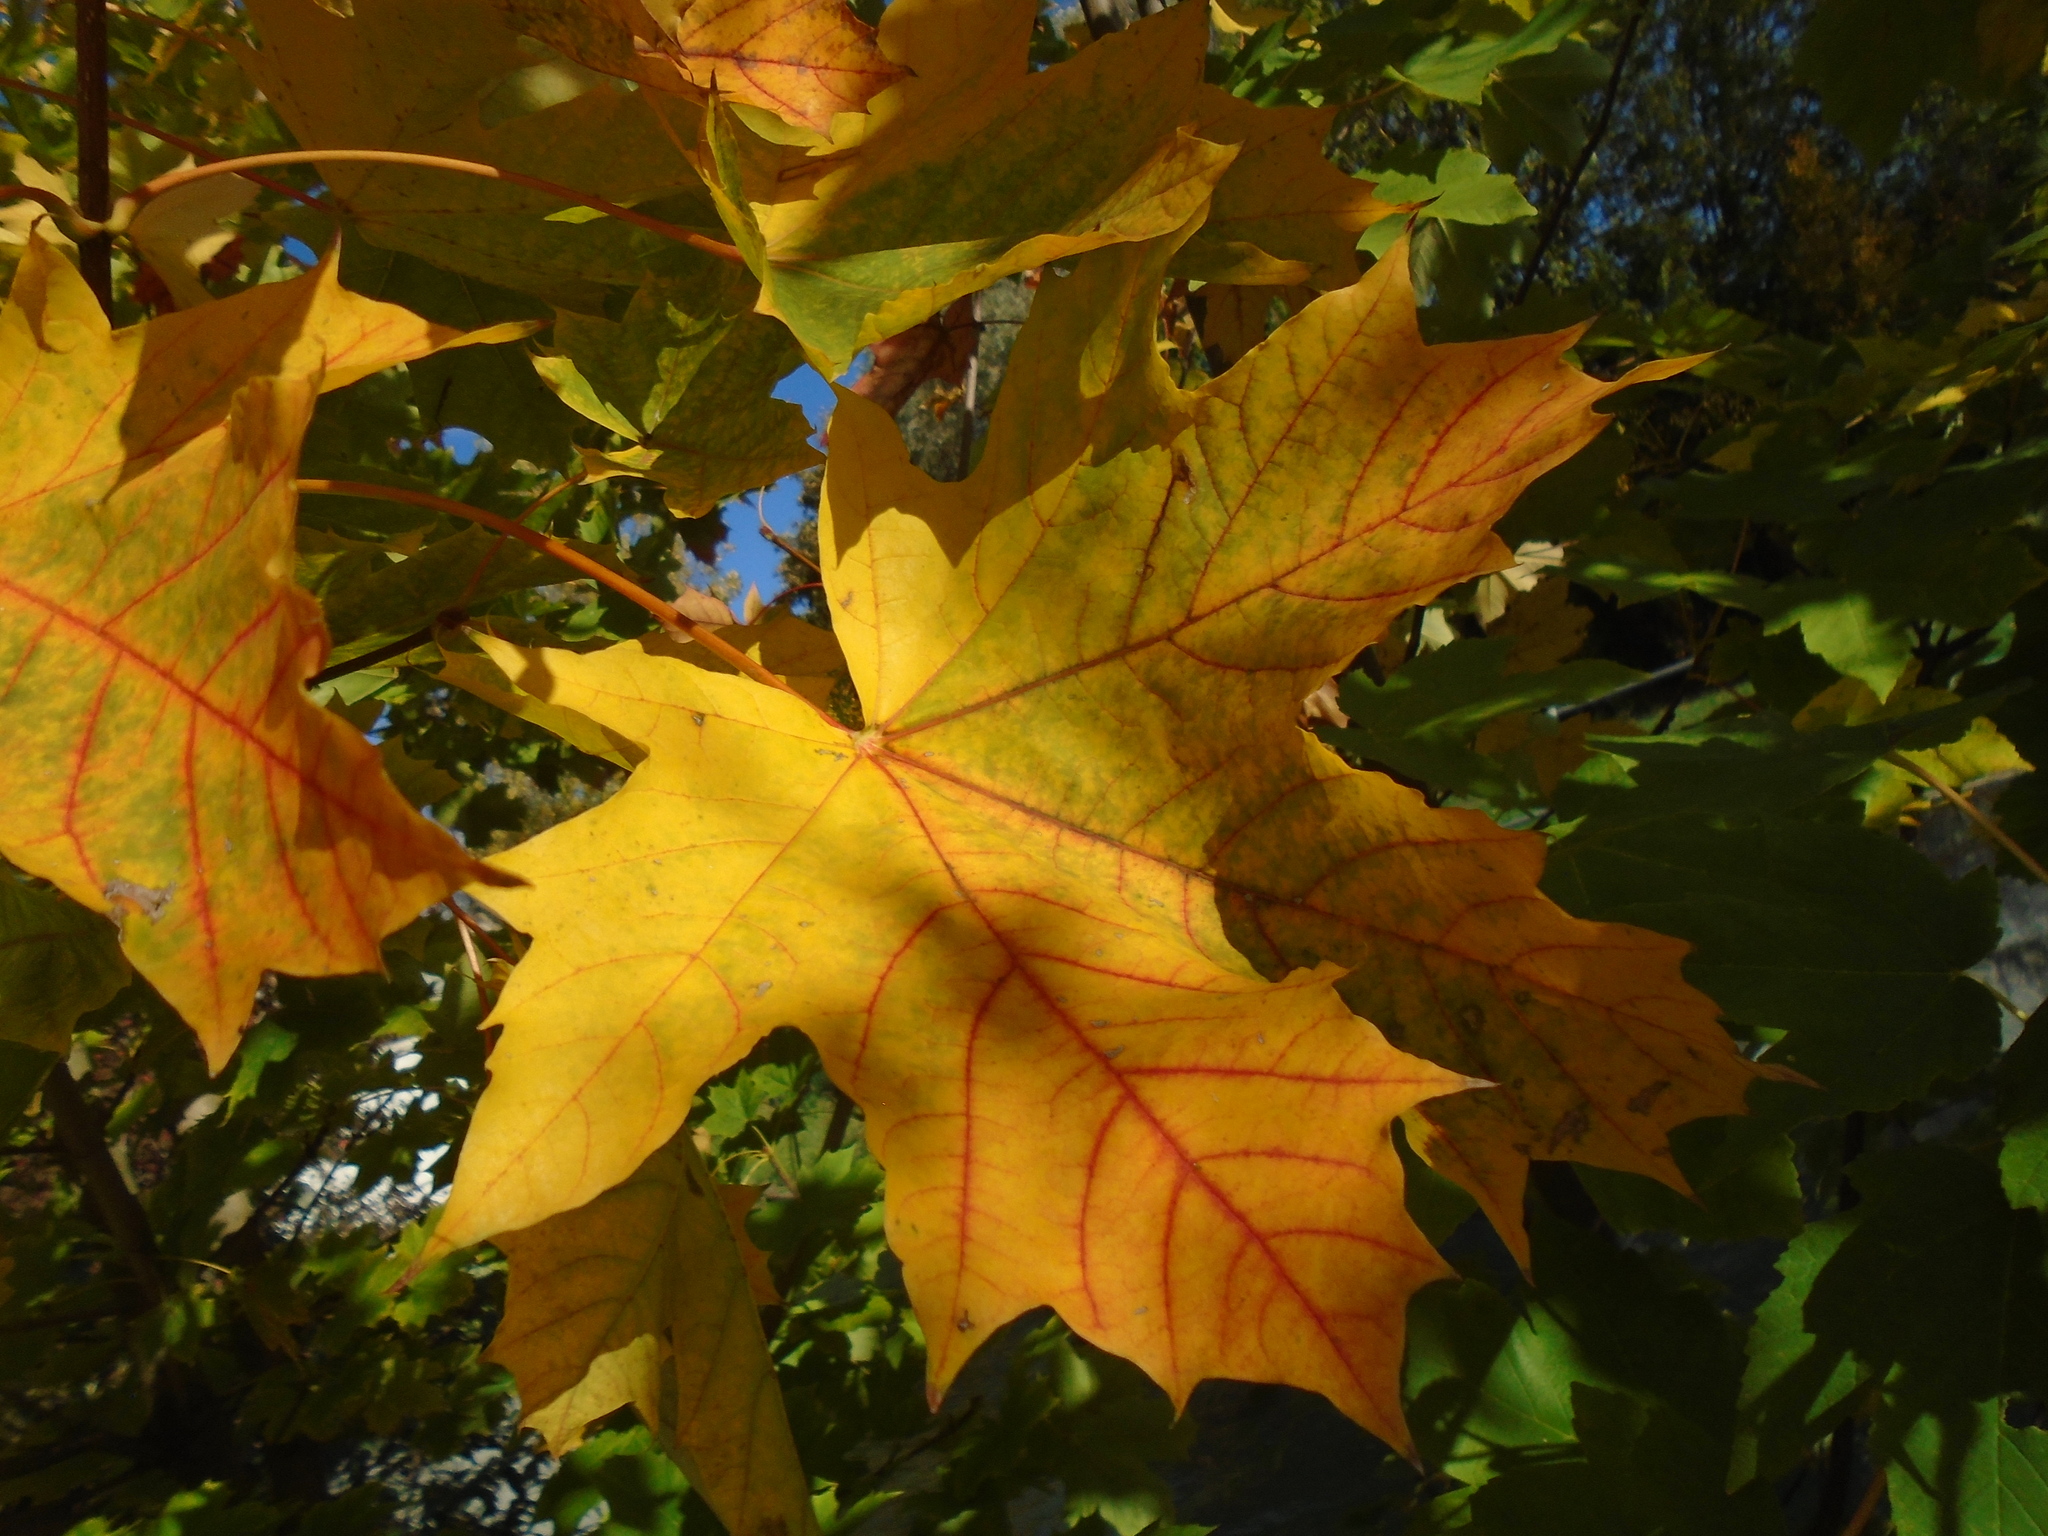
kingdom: Plantae
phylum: Tracheophyta
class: Magnoliopsida
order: Sapindales
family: Sapindaceae
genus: Acer
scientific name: Acer platanoides
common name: Norway maple
